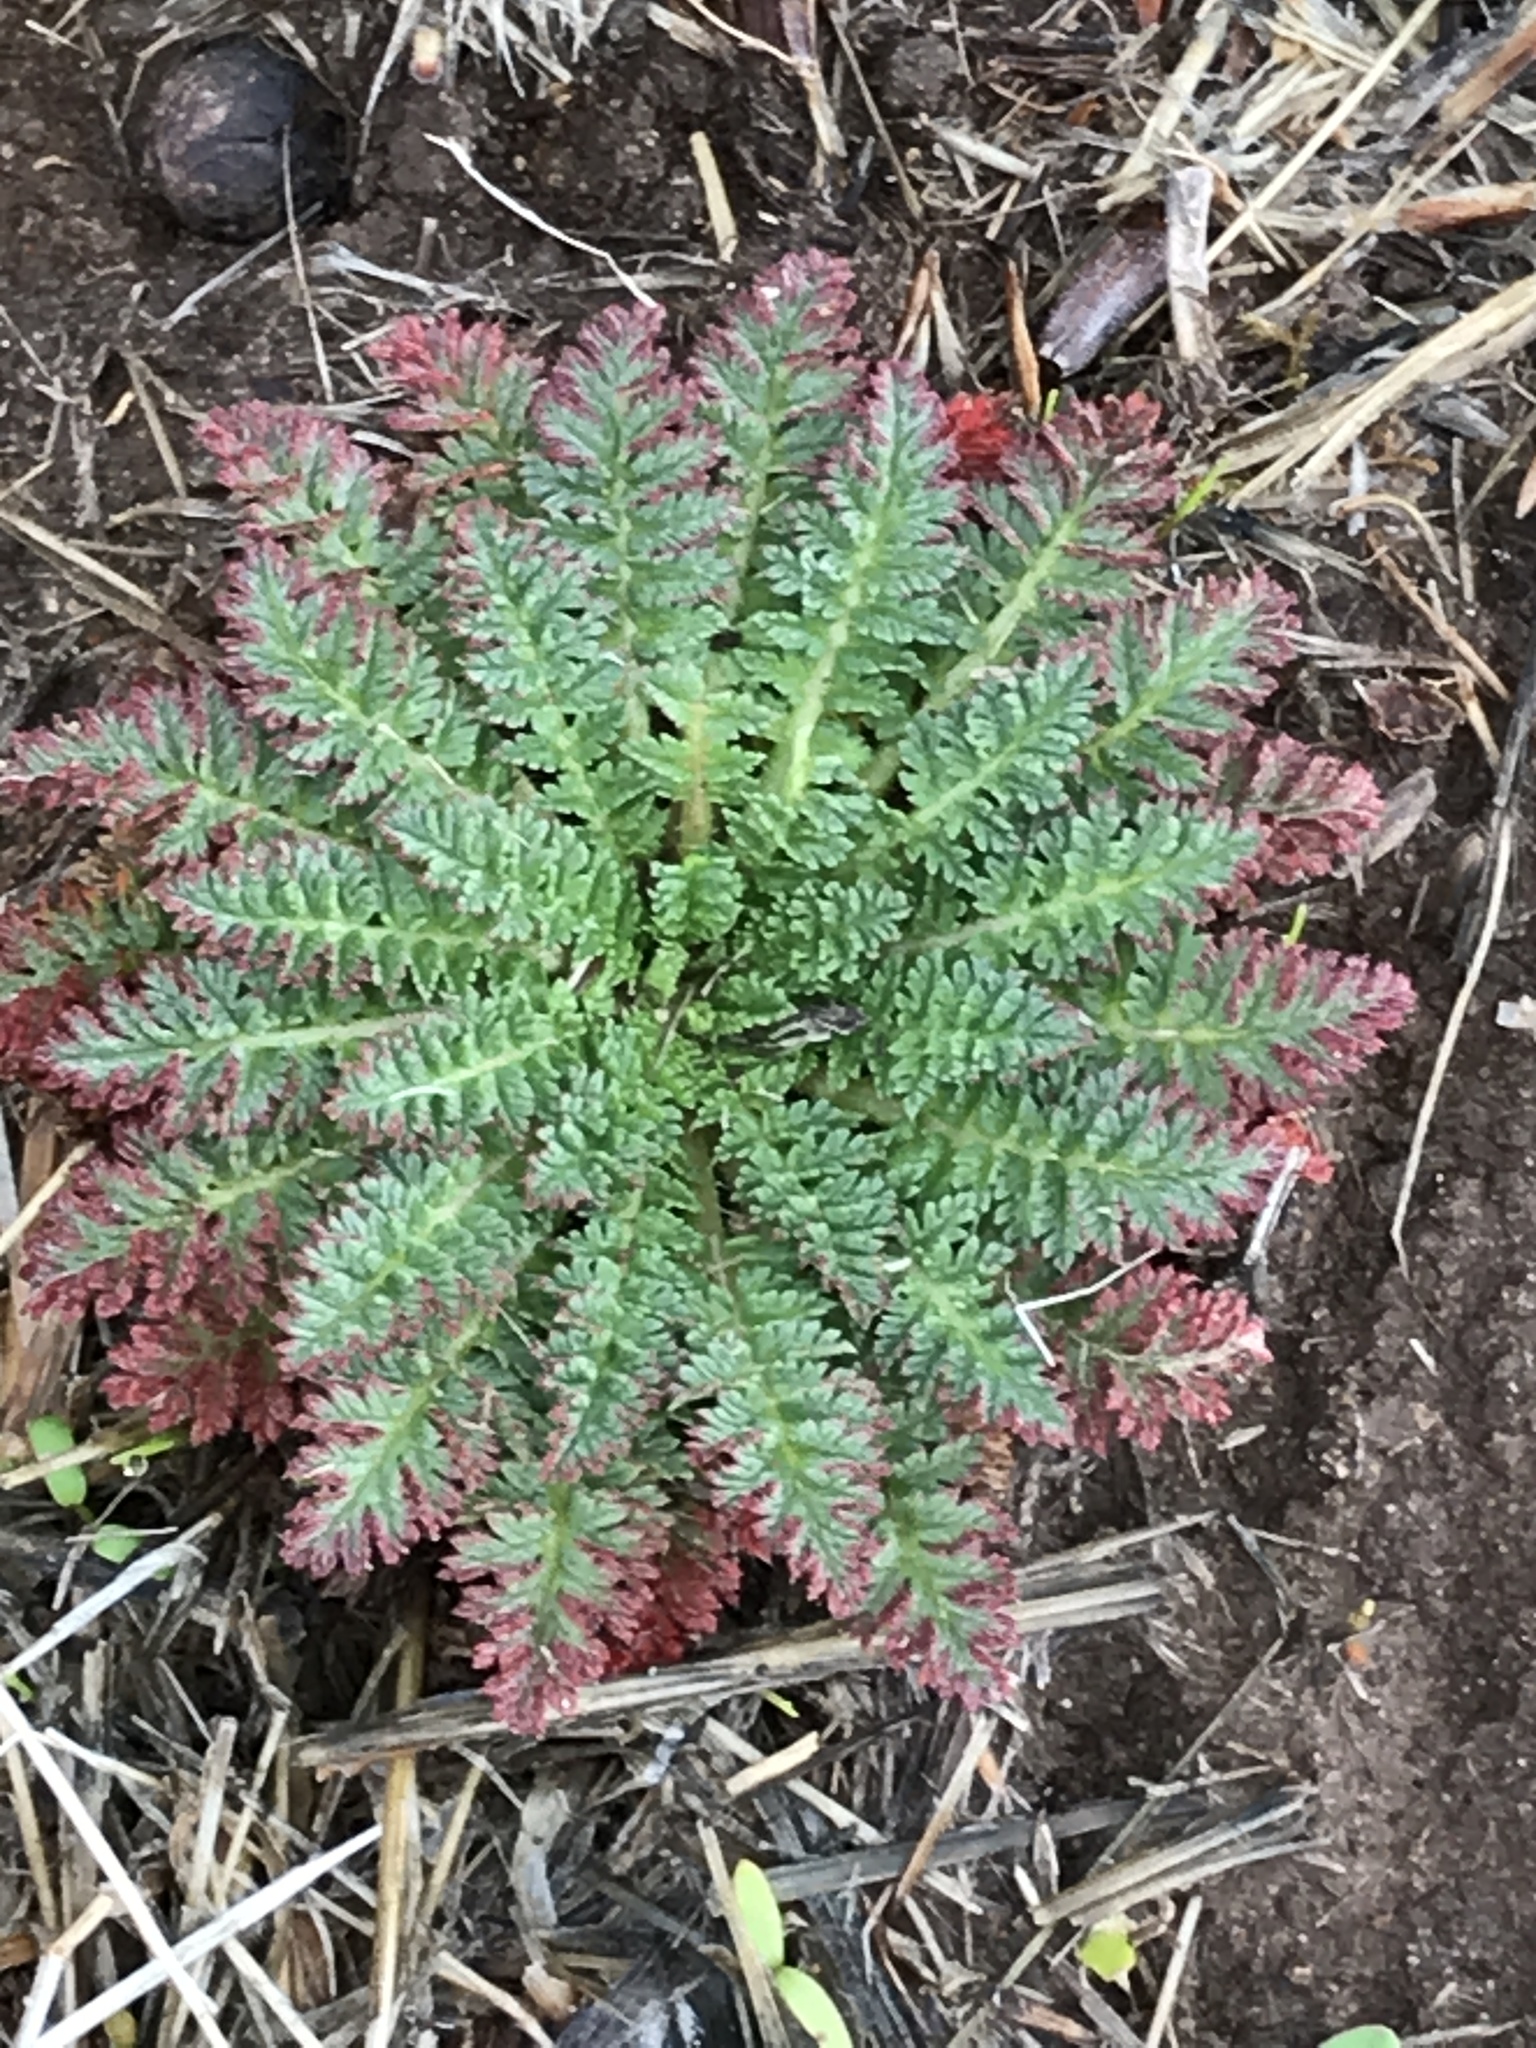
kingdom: Plantae
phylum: Tracheophyta
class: Magnoliopsida
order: Geraniales
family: Geraniaceae
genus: Erodium
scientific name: Erodium cicutarium
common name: Common stork's-bill
